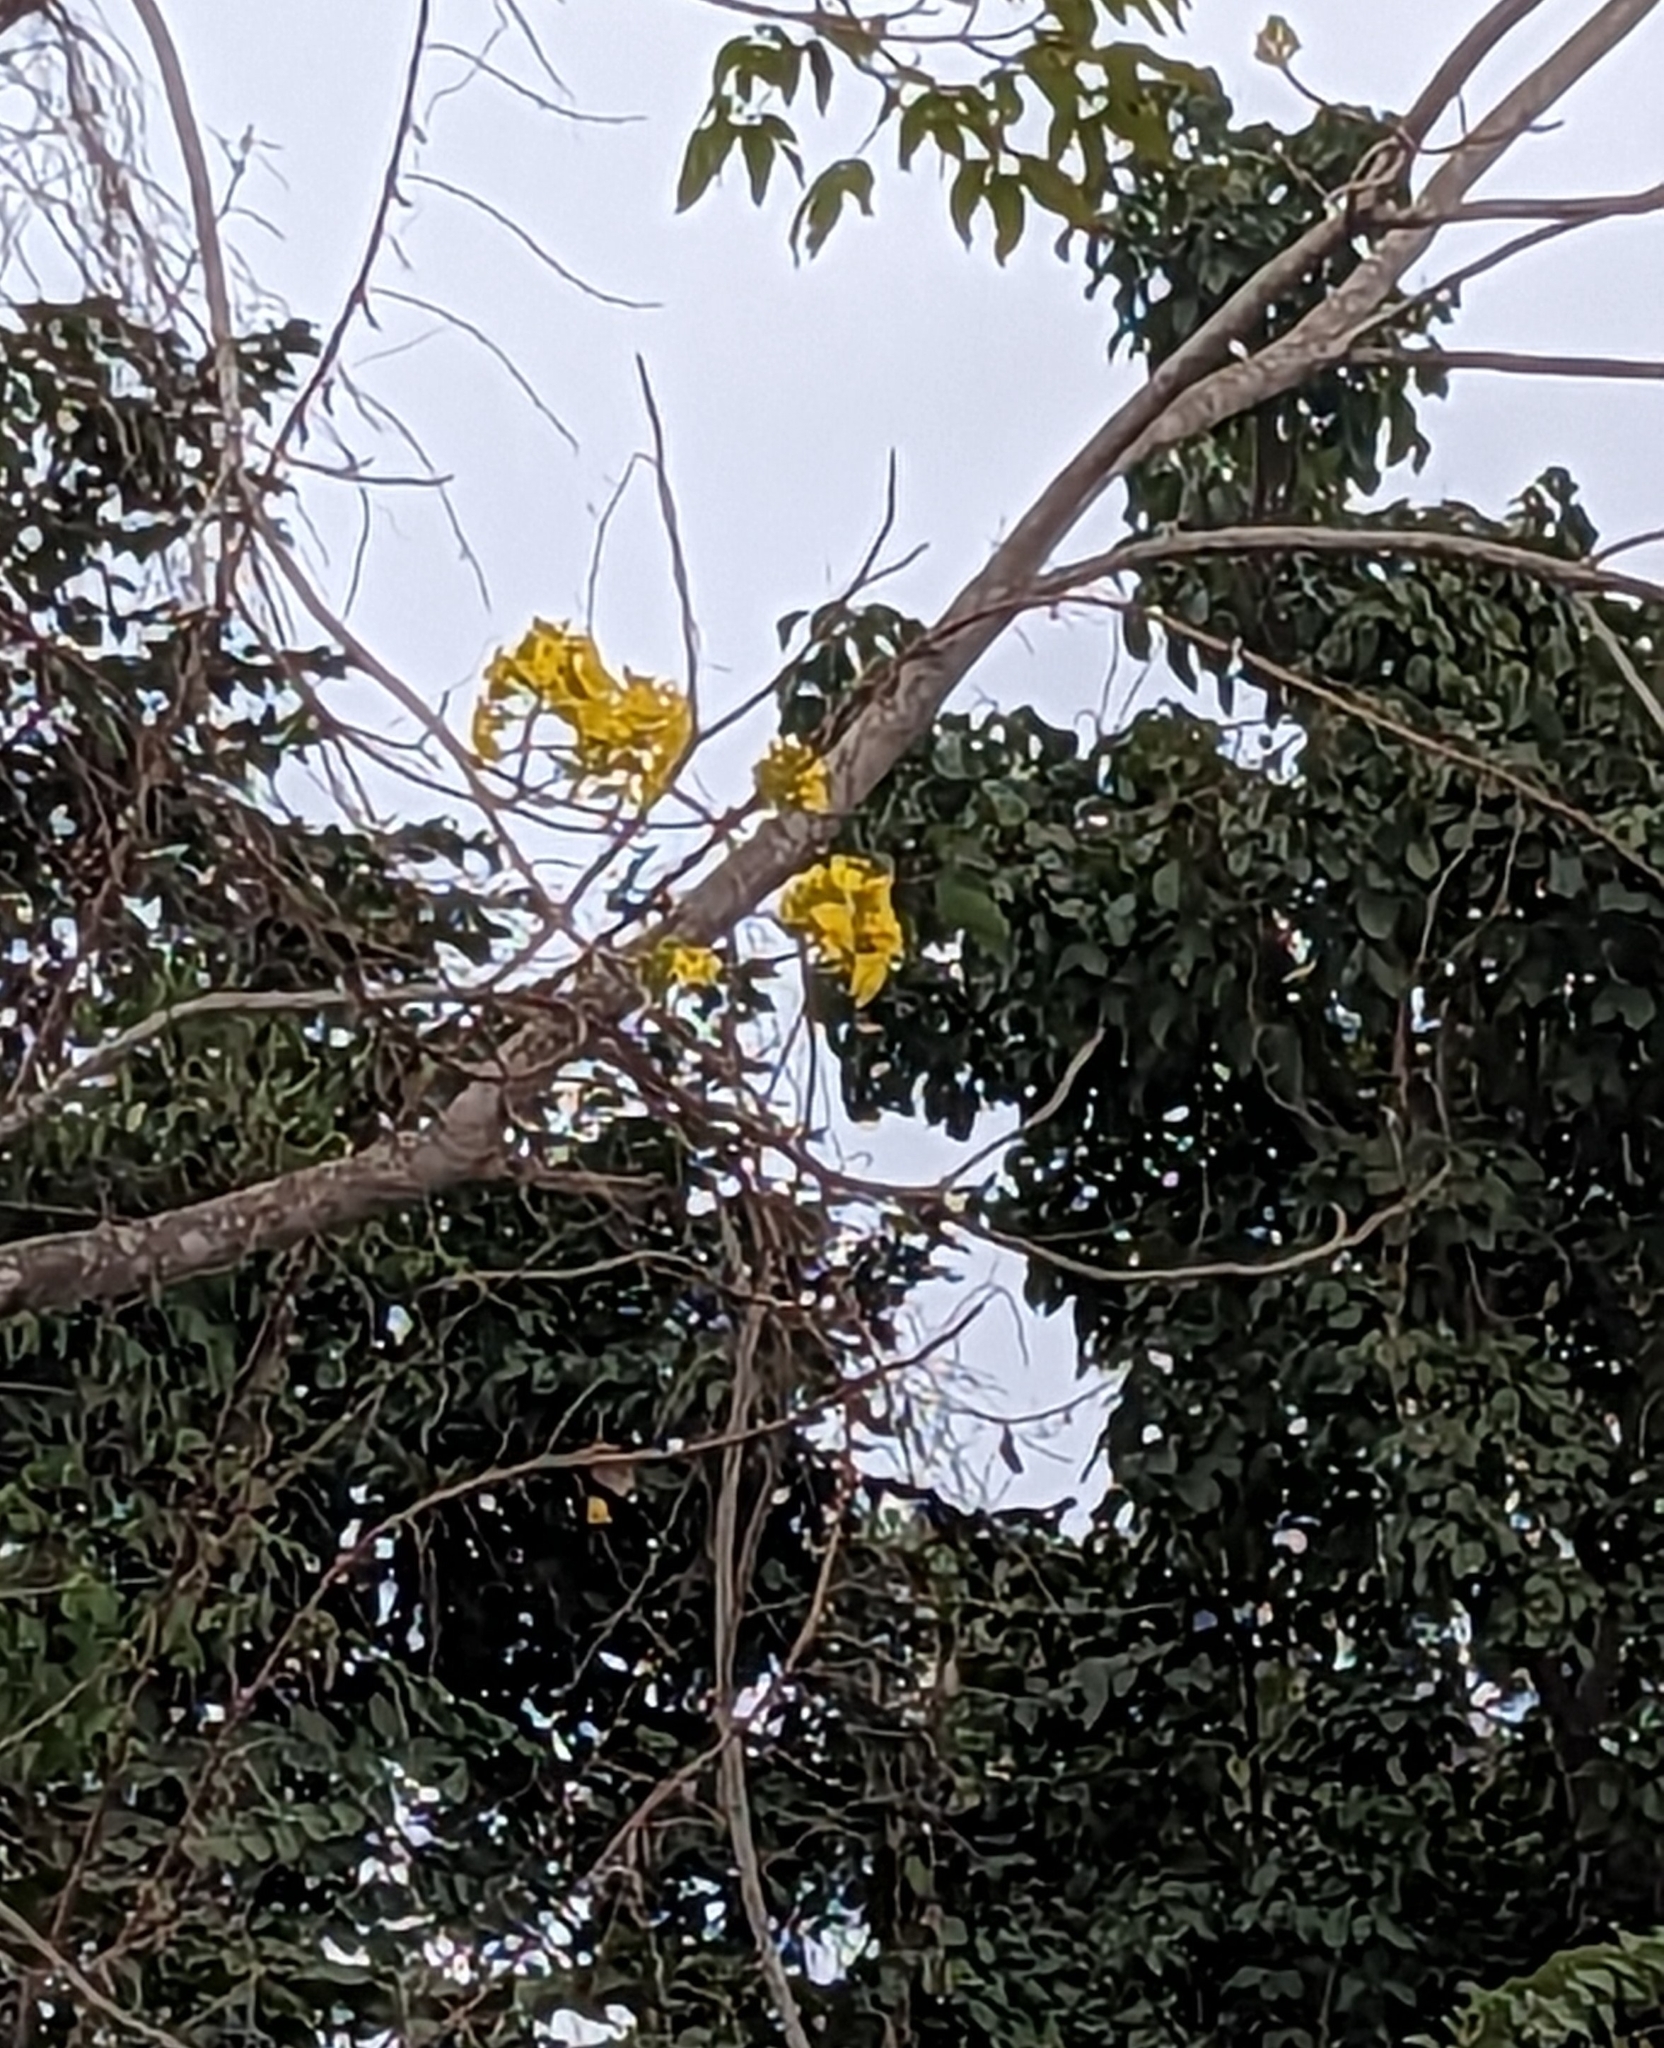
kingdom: Plantae
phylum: Tracheophyta
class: Magnoliopsida
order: Lamiales
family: Bignoniaceae
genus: Roseodendron
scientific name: Roseodendron donnell-smithii
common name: White-mahogany
